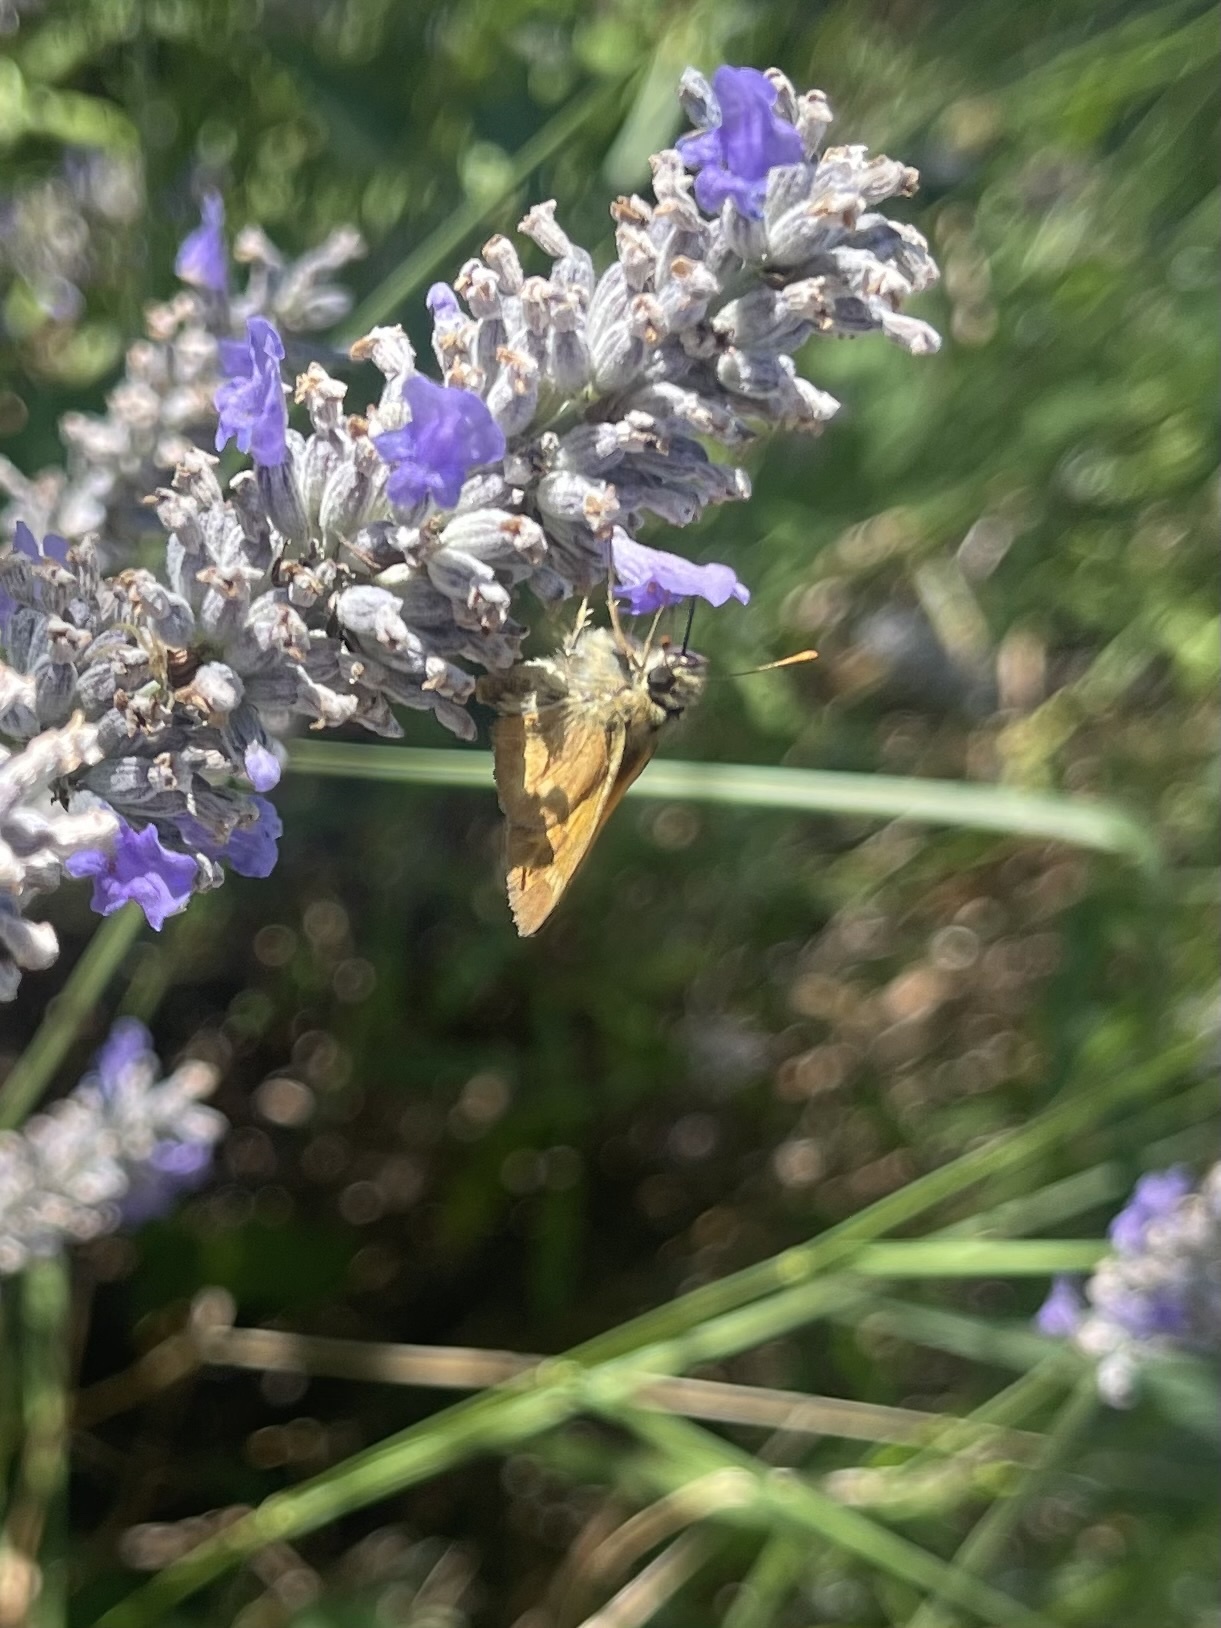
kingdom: Animalia
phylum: Arthropoda
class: Insecta
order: Lepidoptera
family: Hesperiidae
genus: Ochlodes
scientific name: Ochlodes sylvanoides
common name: Woodland skipper
